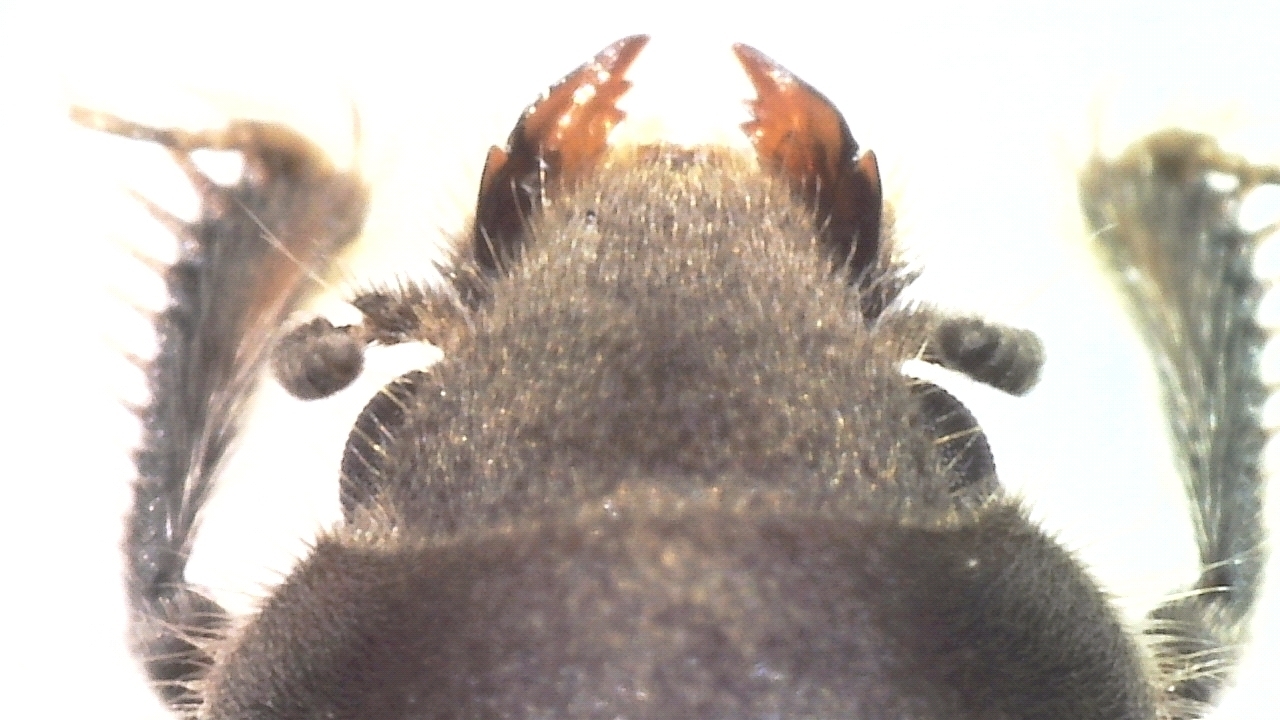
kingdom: Animalia
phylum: Arthropoda
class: Insecta
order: Coleoptera
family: Heteroceridae
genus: Heterocerus
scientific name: Heterocerus fenestratus
